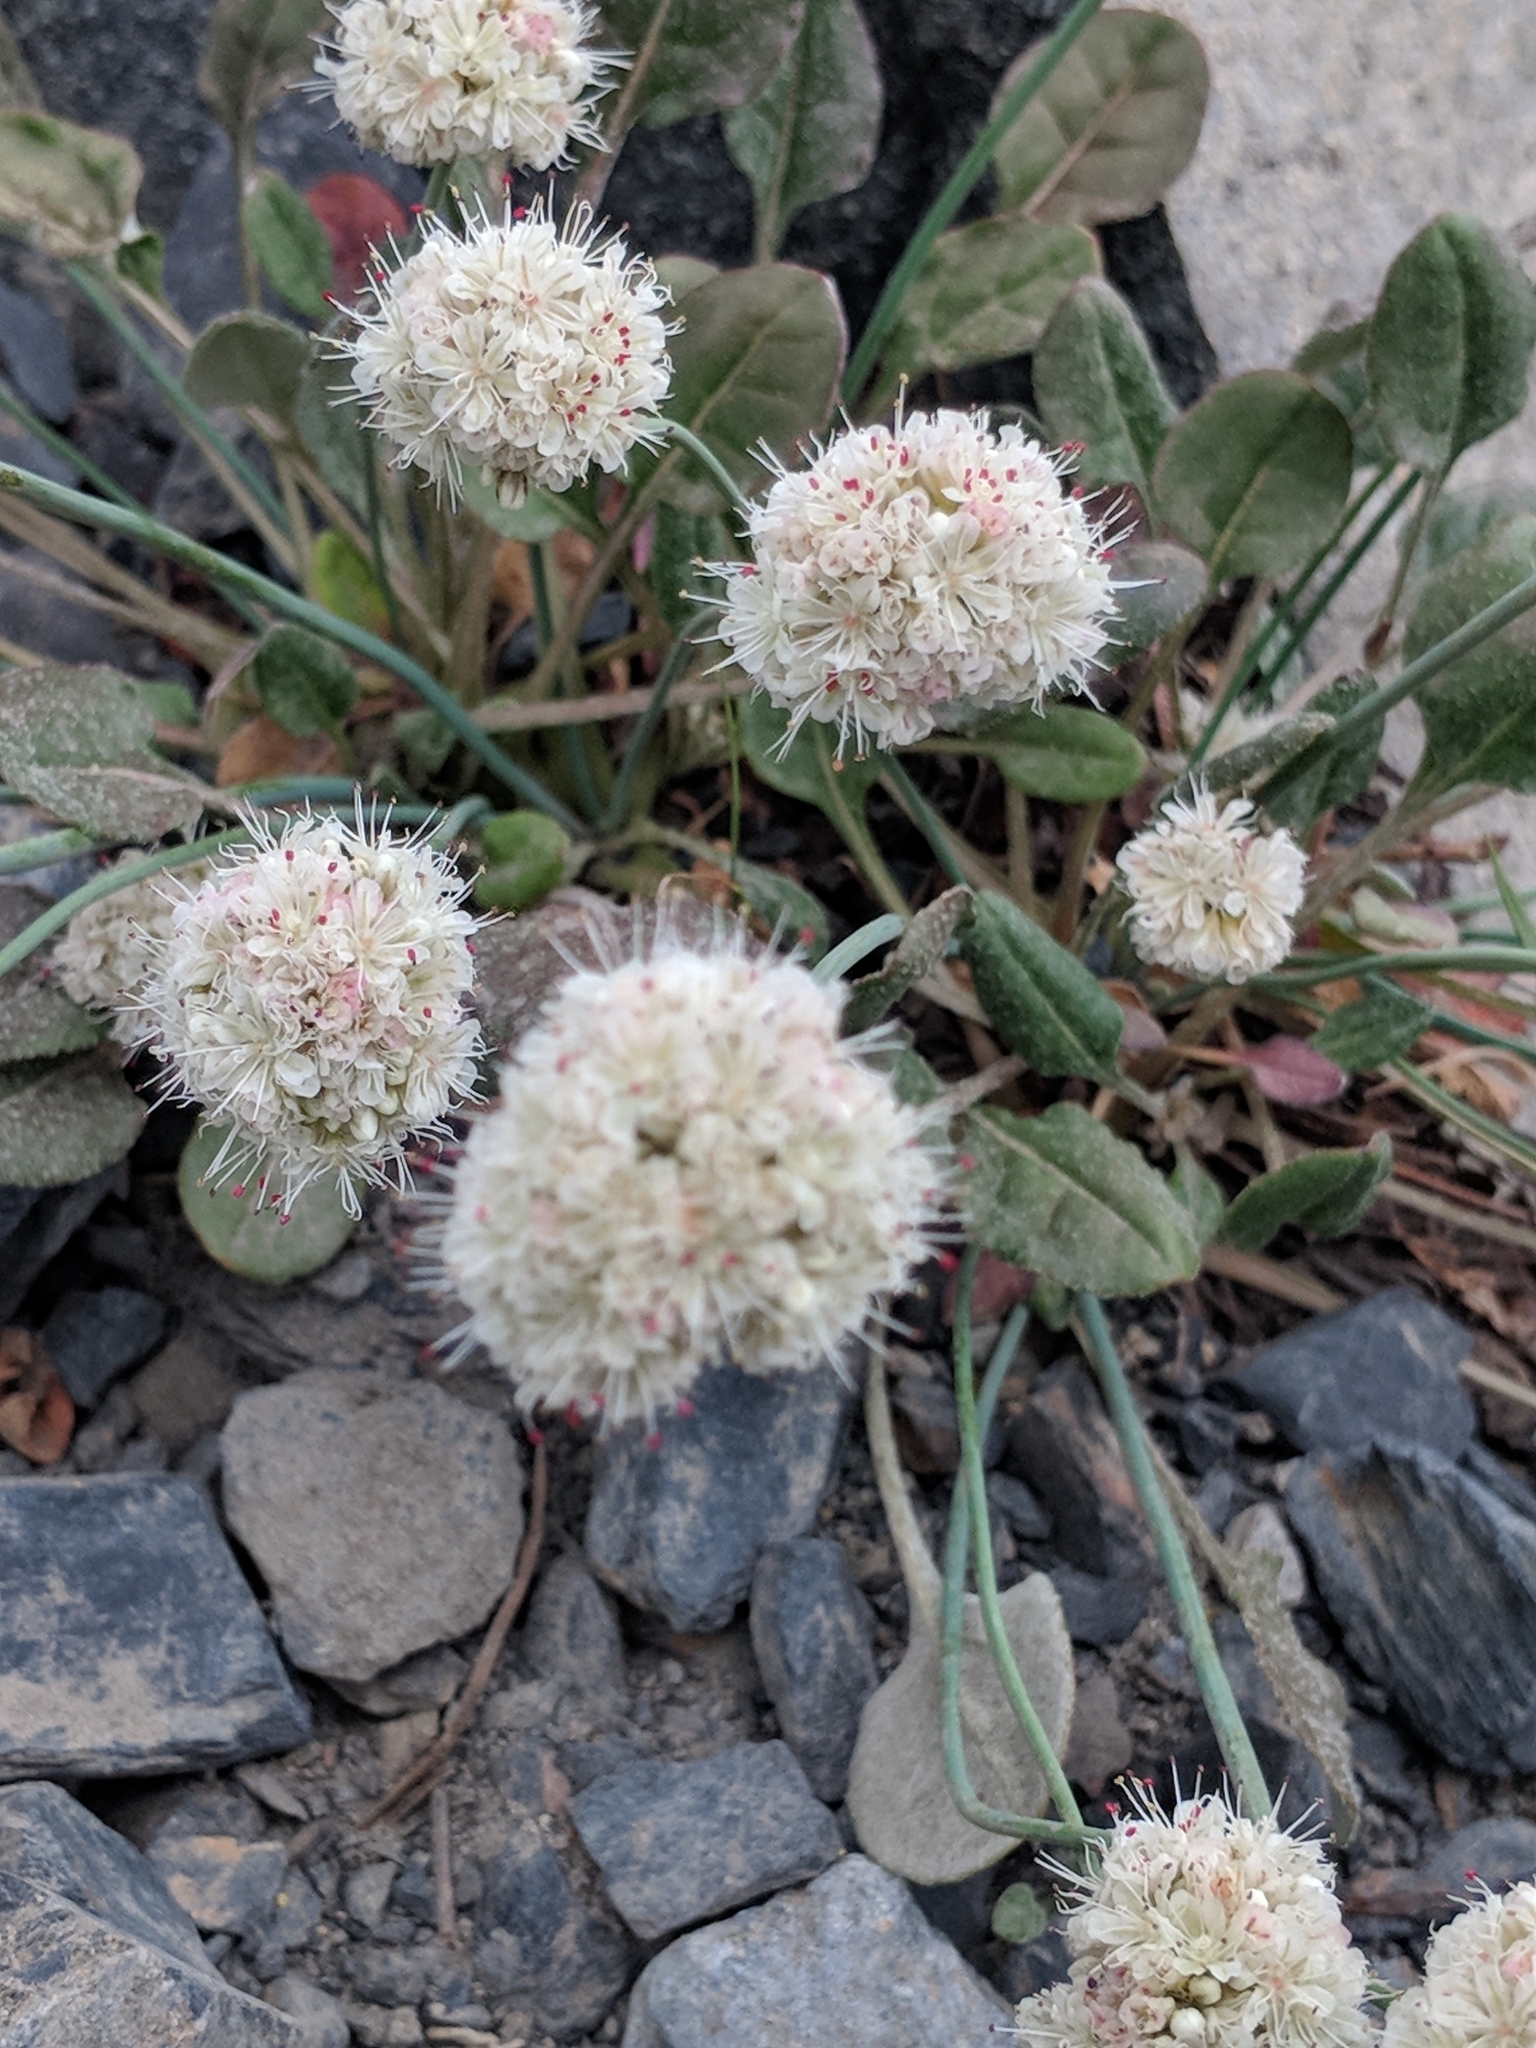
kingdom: Plantae
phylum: Tracheophyta
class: Magnoliopsida
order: Caryophyllales
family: Polygonaceae
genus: Eriogonum
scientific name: Eriogonum nudum
